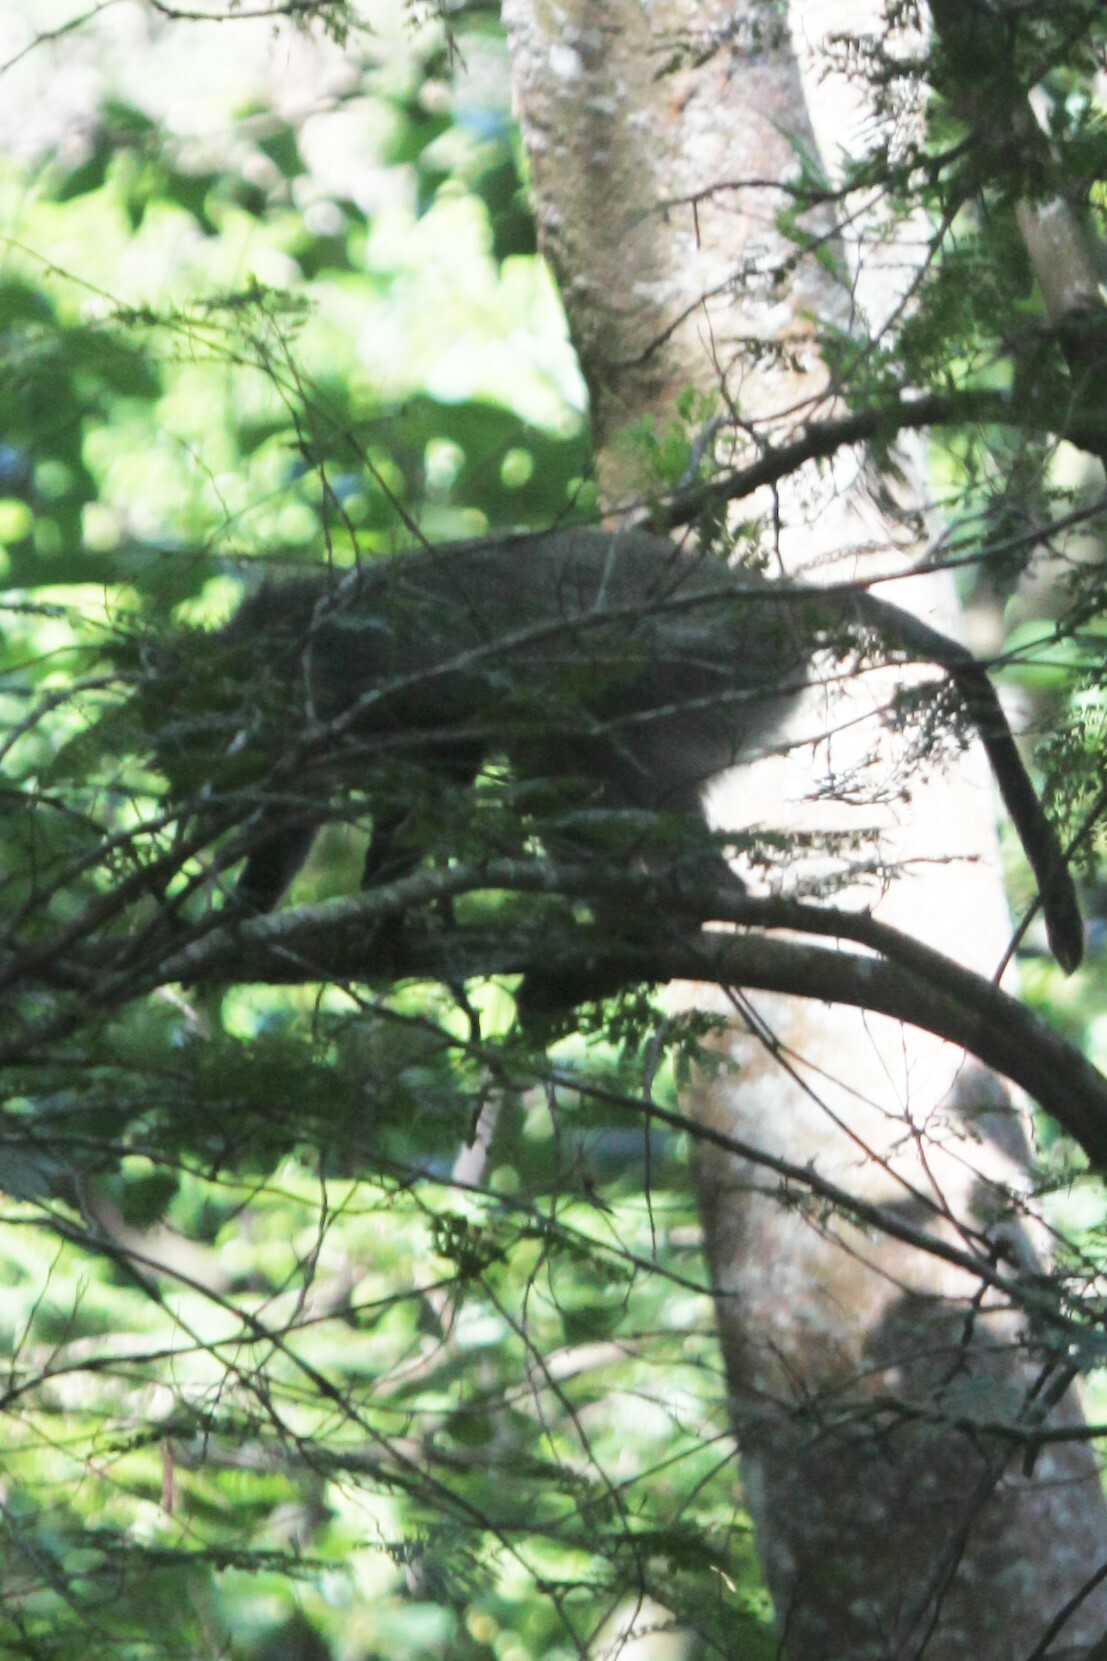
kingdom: Animalia
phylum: Chordata
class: Mammalia
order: Primates
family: Cercopithecidae
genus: Cercopithecus
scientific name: Cercopithecus mitis
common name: Blue monkey
